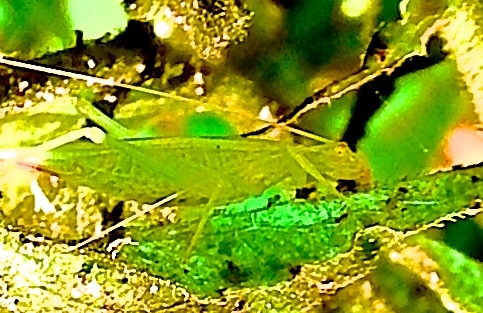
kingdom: Animalia
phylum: Arthropoda
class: Insecta
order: Orthoptera
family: Oecanthidae
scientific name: Oecanthidae
